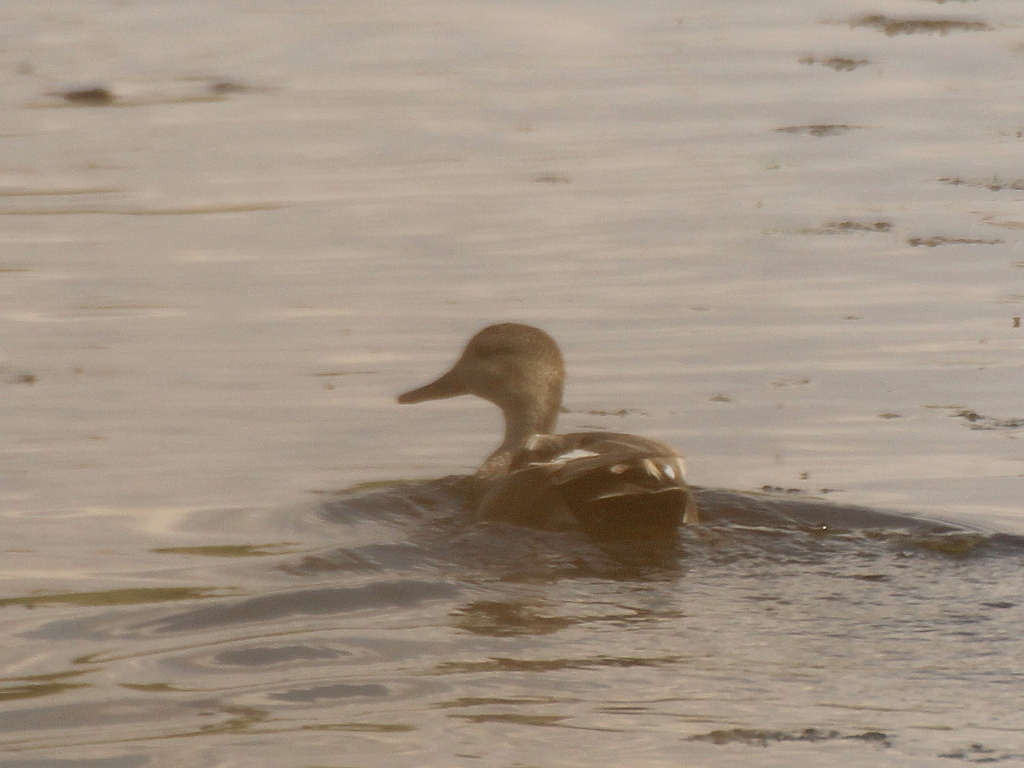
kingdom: Animalia
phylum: Chordata
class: Aves
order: Anseriformes
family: Anatidae
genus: Mareca
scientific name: Mareca strepera
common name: Gadwall
